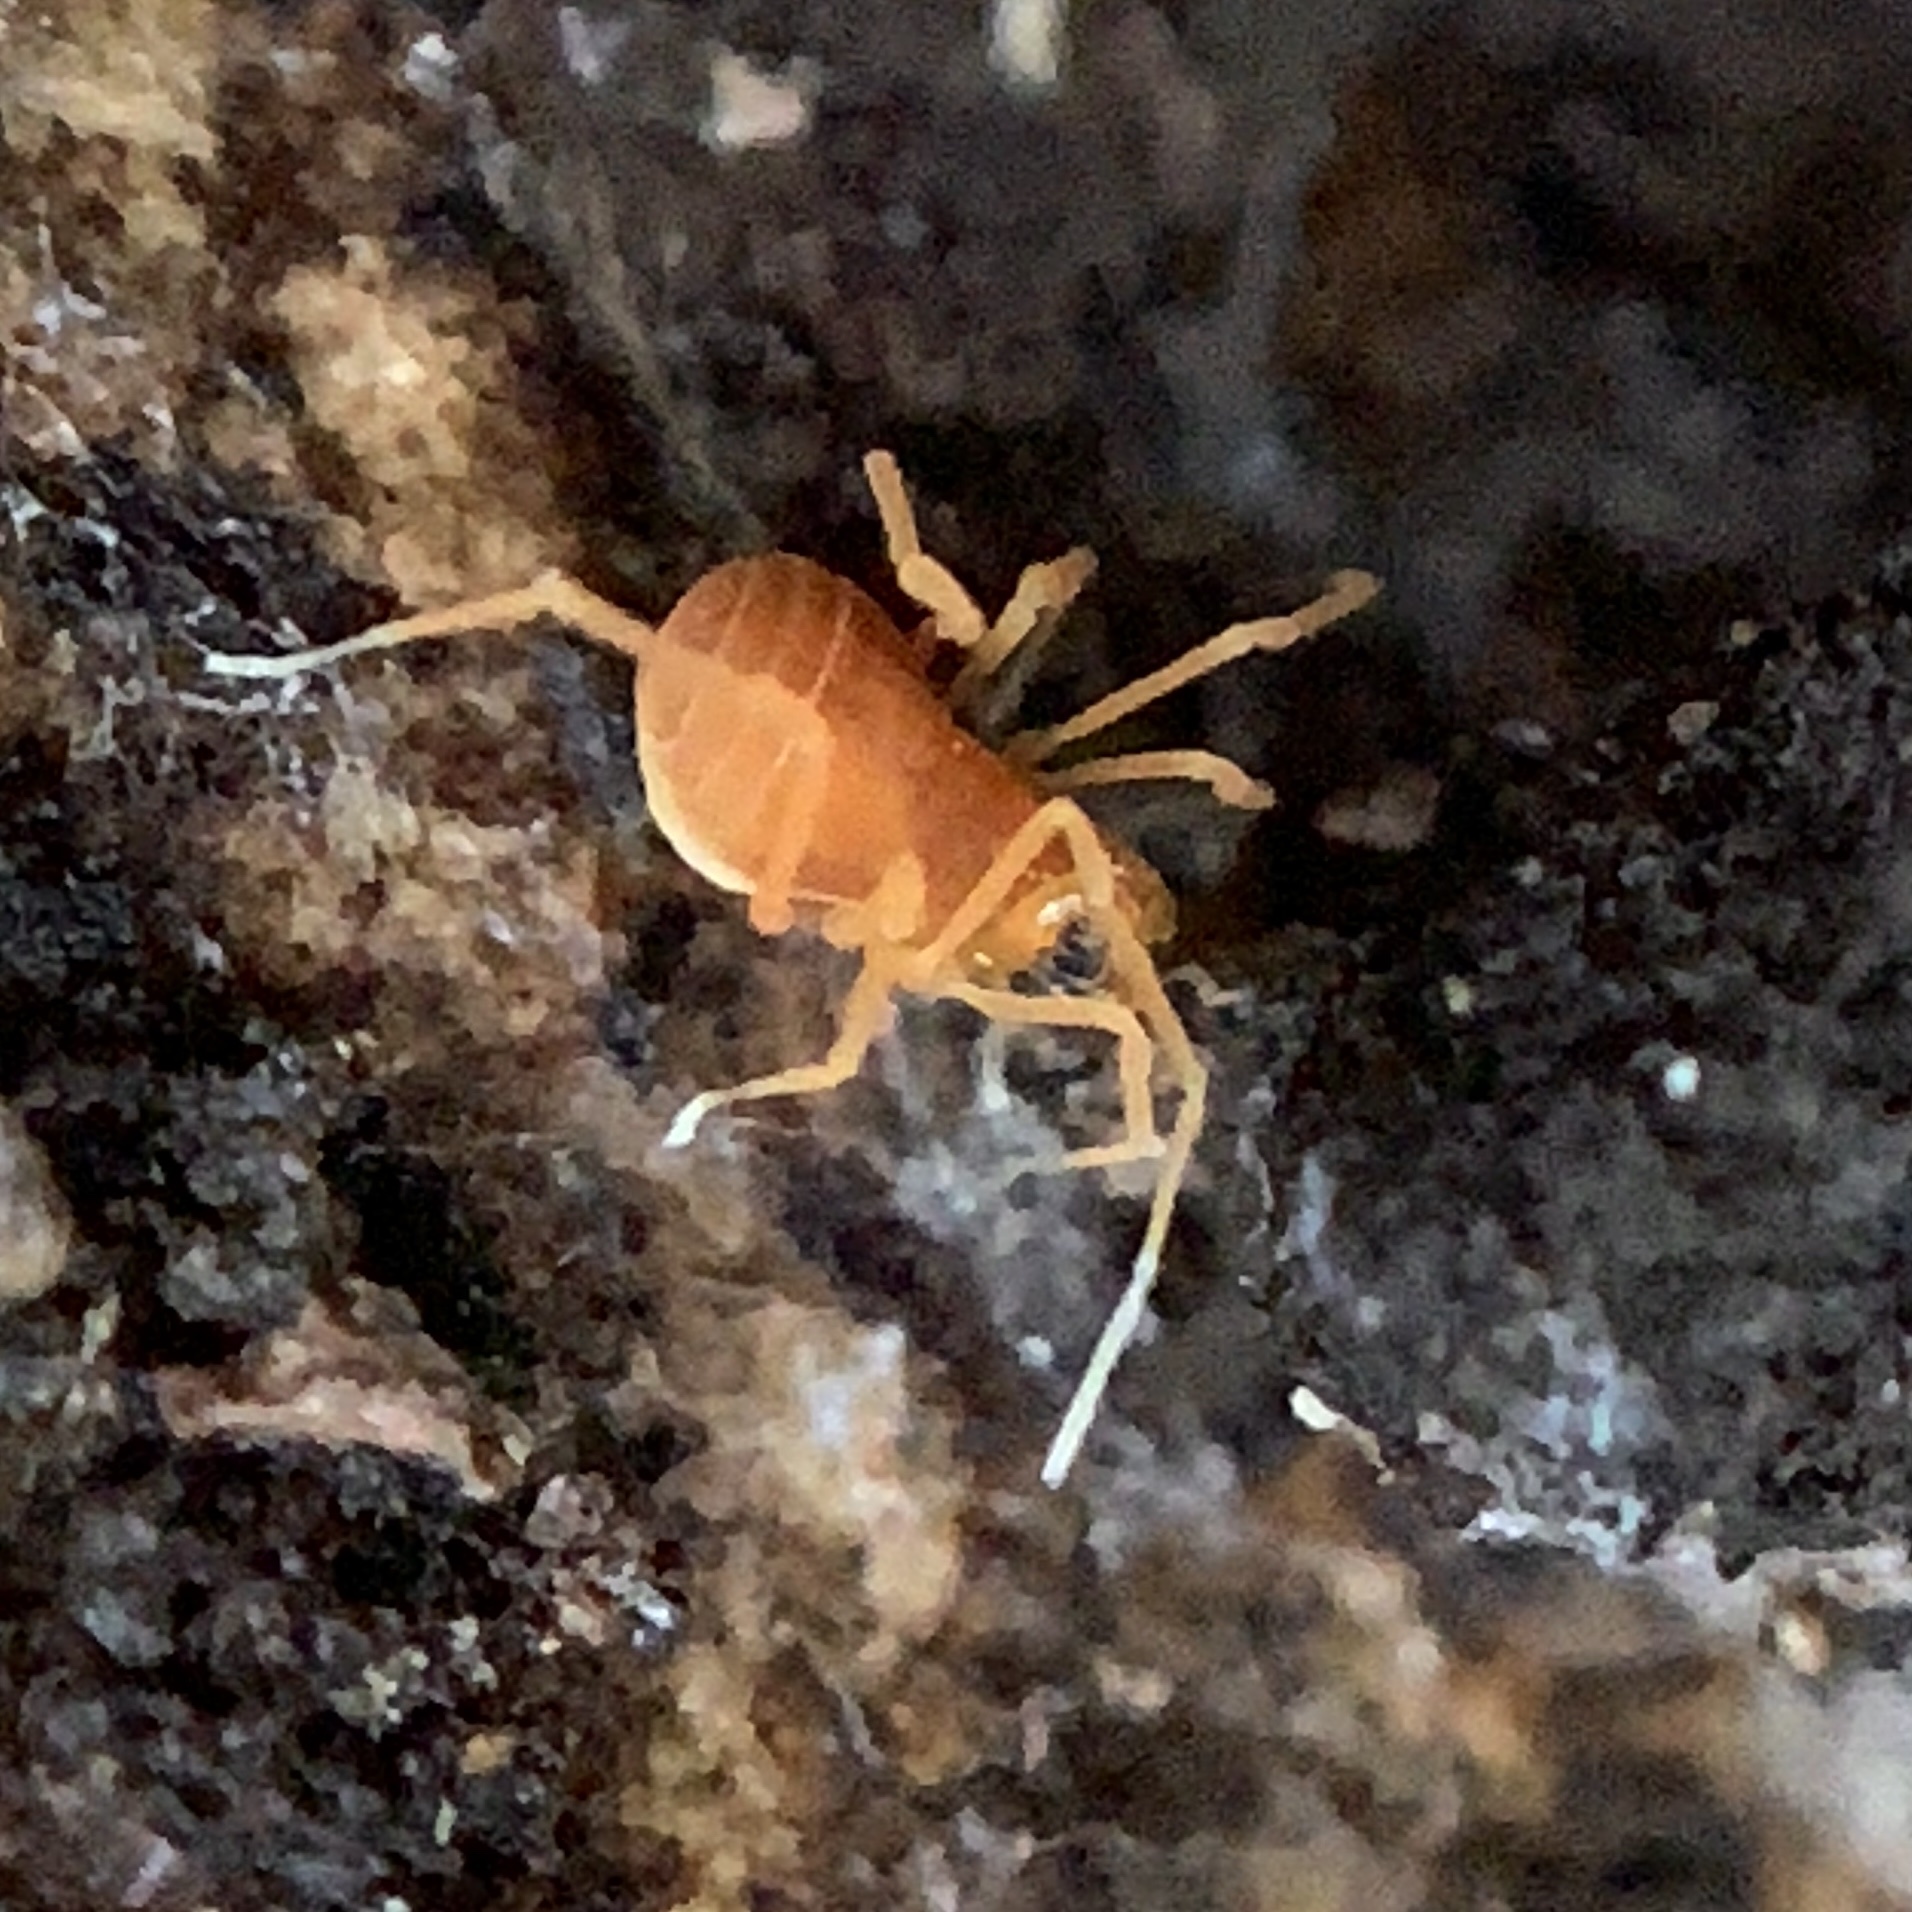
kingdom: Animalia
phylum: Arthropoda
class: Arachnida
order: Opiliones
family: Phalangodidae
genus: Scotolemon
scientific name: Scotolemon doriae
